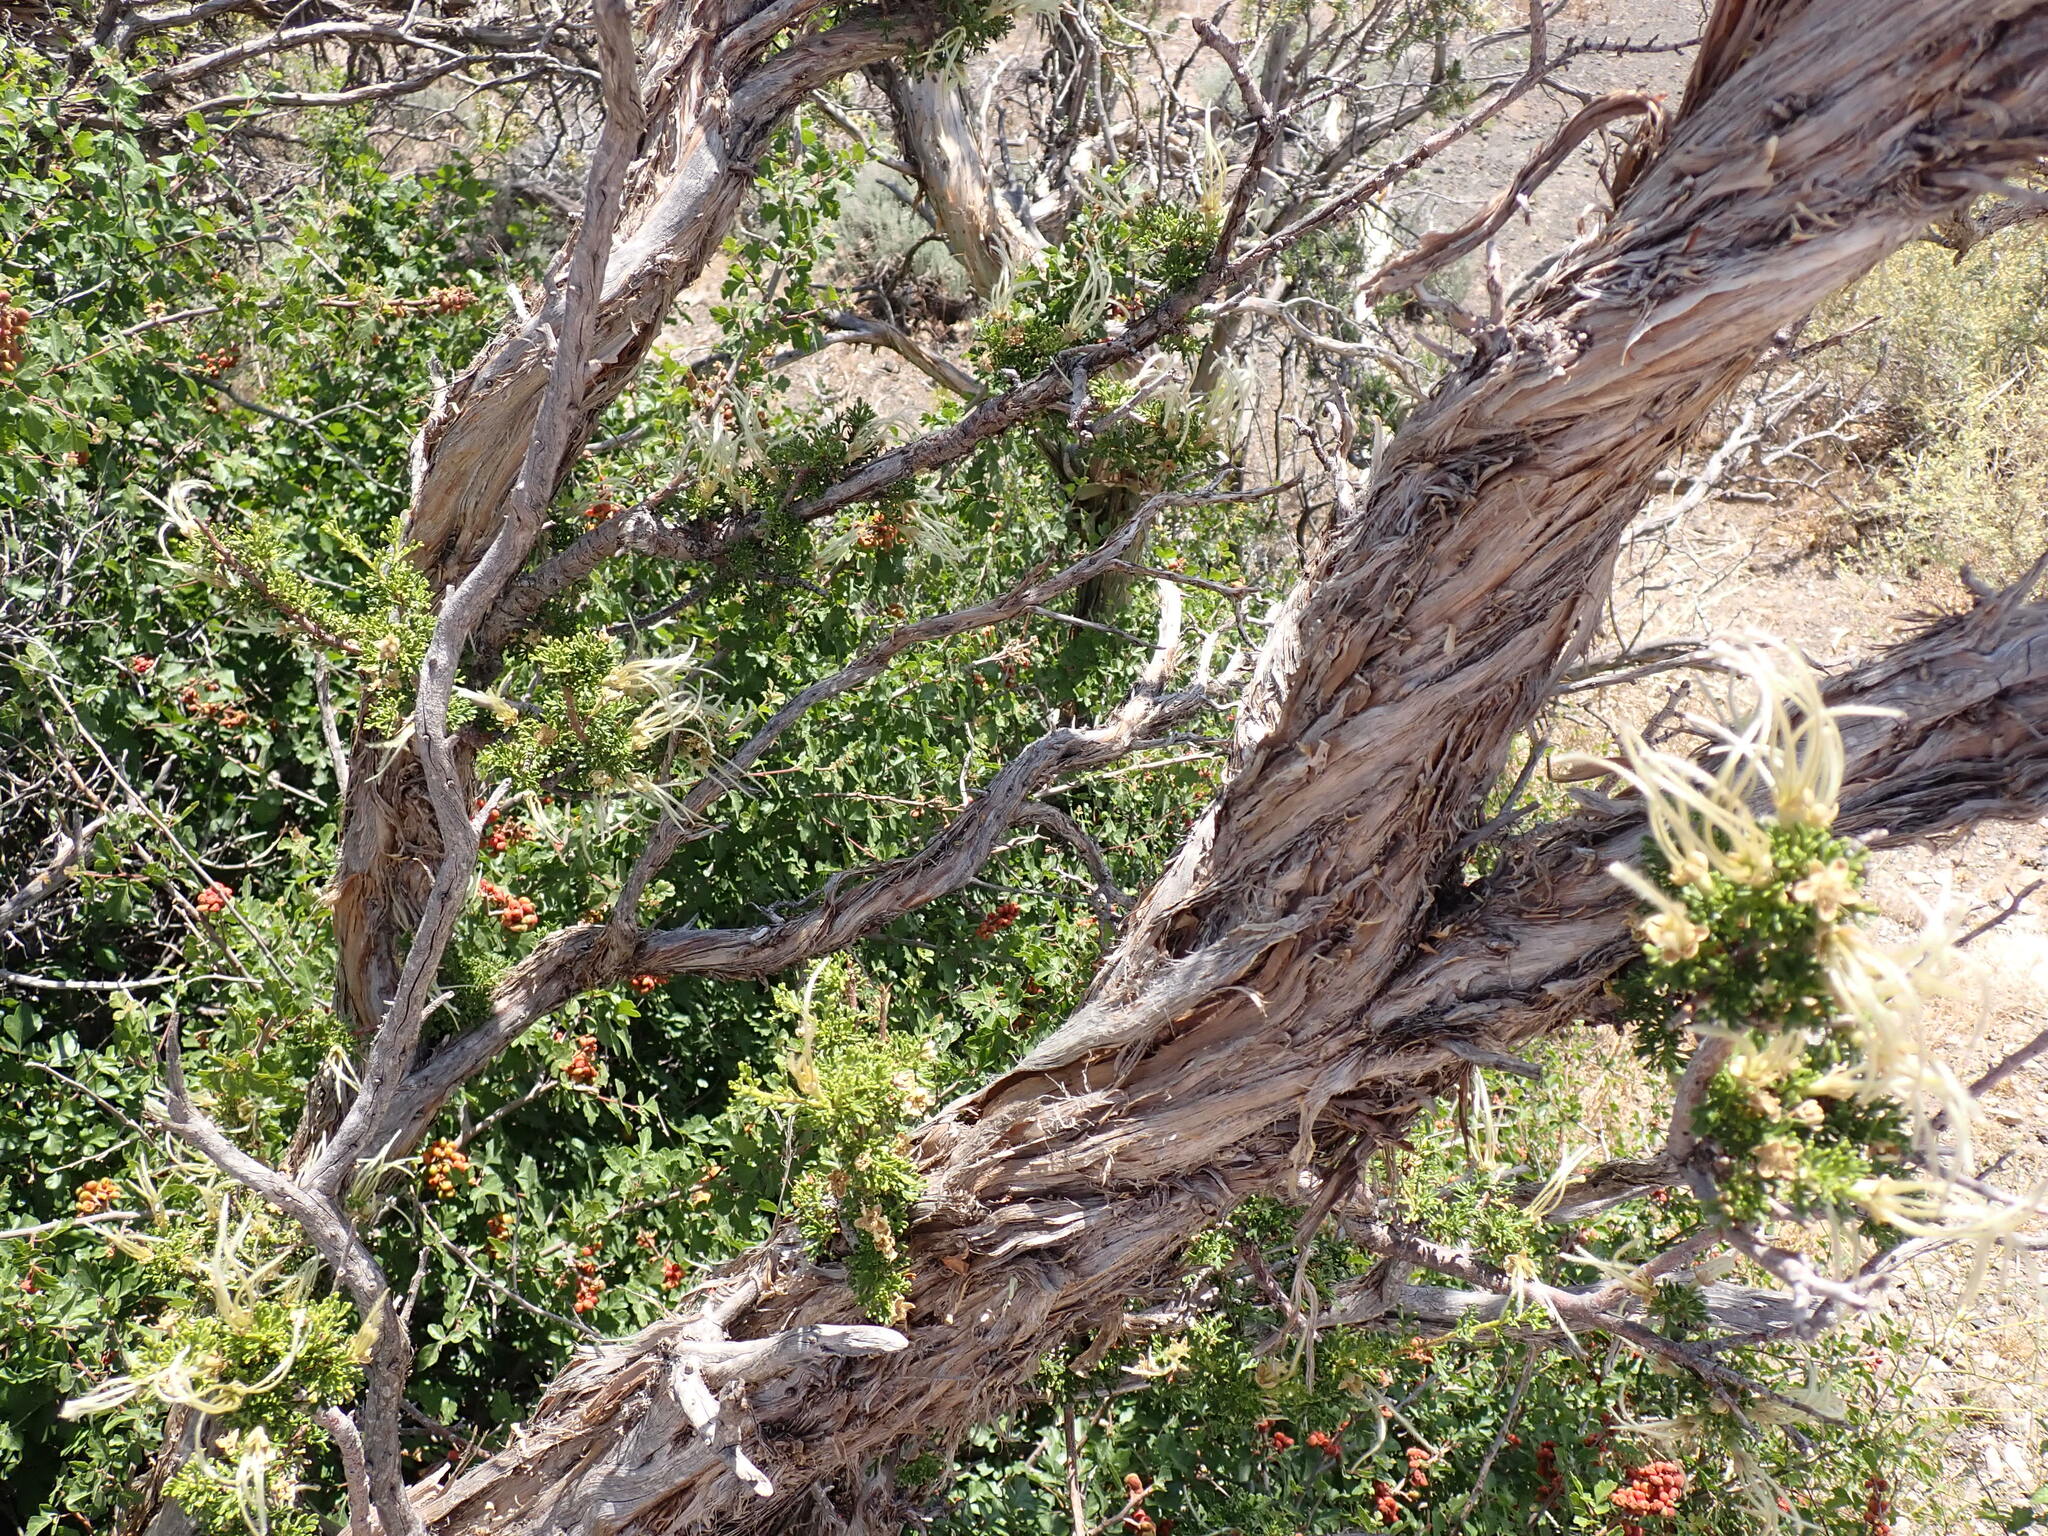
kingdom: Plantae
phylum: Tracheophyta
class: Magnoliopsida
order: Rosales
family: Rosaceae
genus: Purshia
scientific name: Purshia stansburiana
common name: Stansbury's cliffrose
